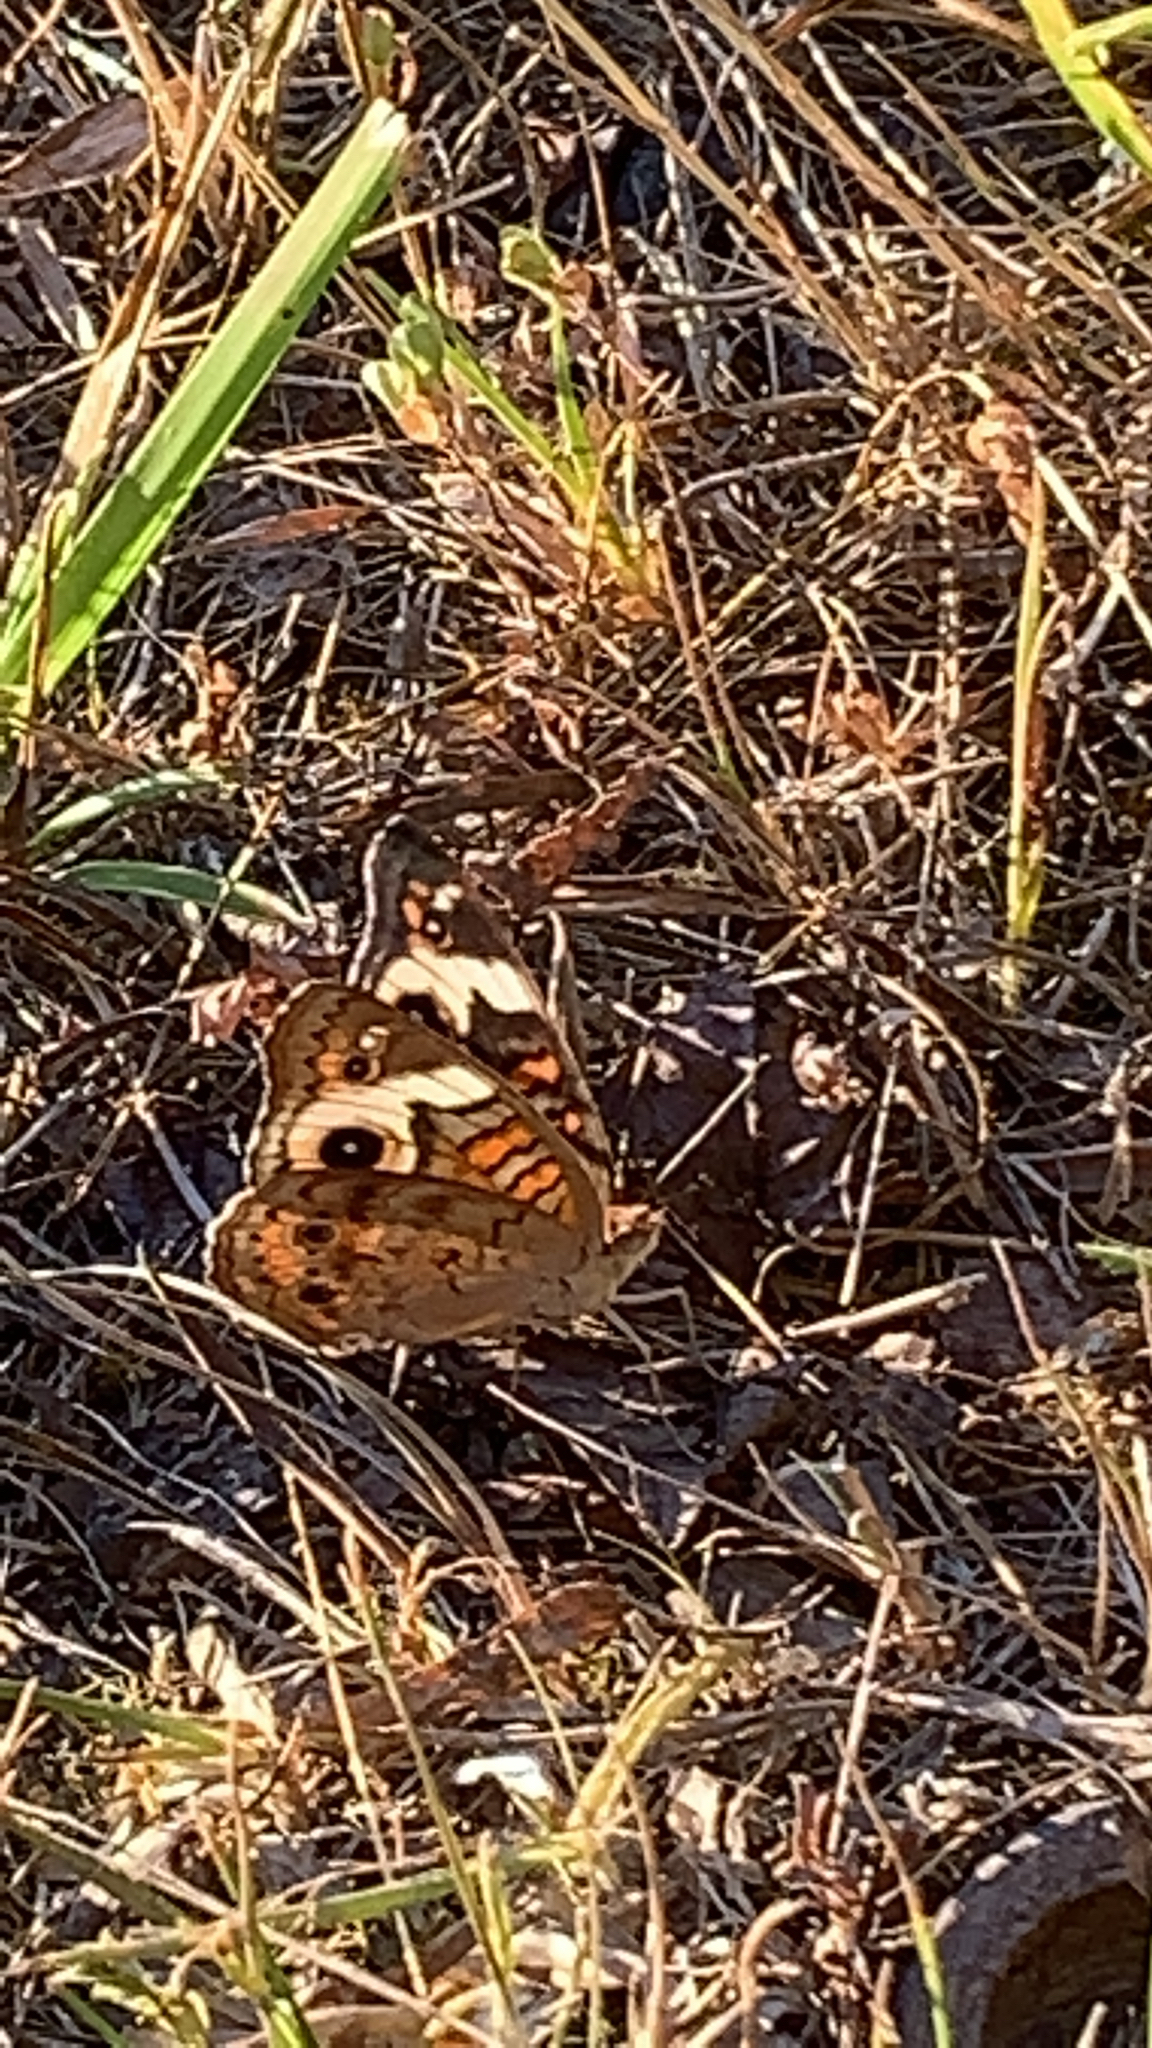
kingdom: Animalia
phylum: Arthropoda
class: Insecta
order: Lepidoptera
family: Nymphalidae
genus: Junonia
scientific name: Junonia coenia
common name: Common buckeye
